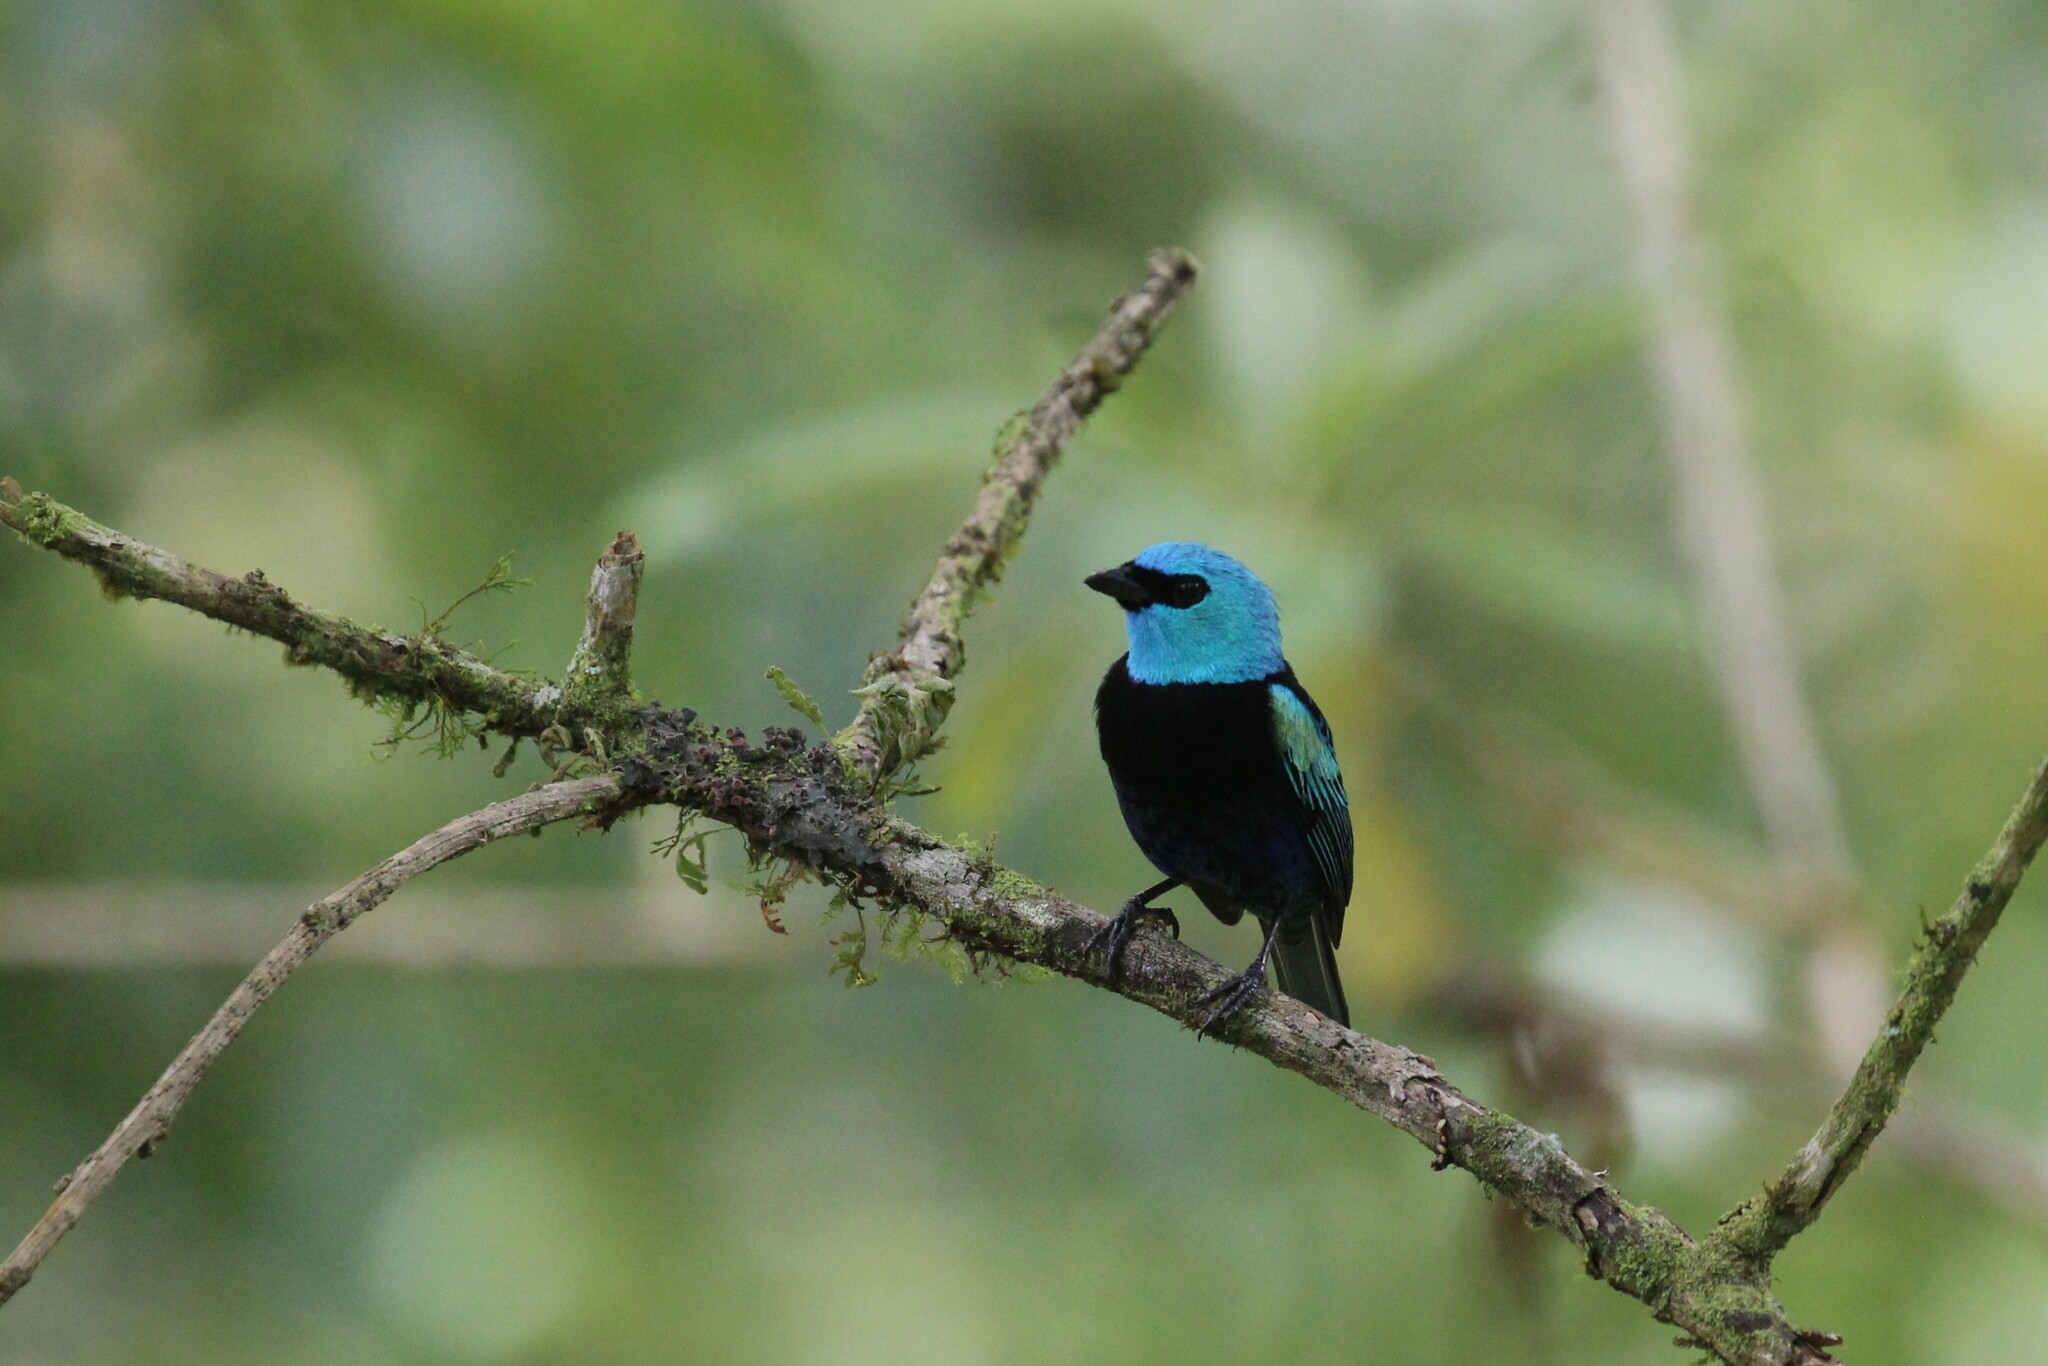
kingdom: Animalia
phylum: Chordata
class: Aves
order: Passeriformes
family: Thraupidae
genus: Stilpnia
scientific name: Stilpnia cyanicollis
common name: Blue-necked tanager
